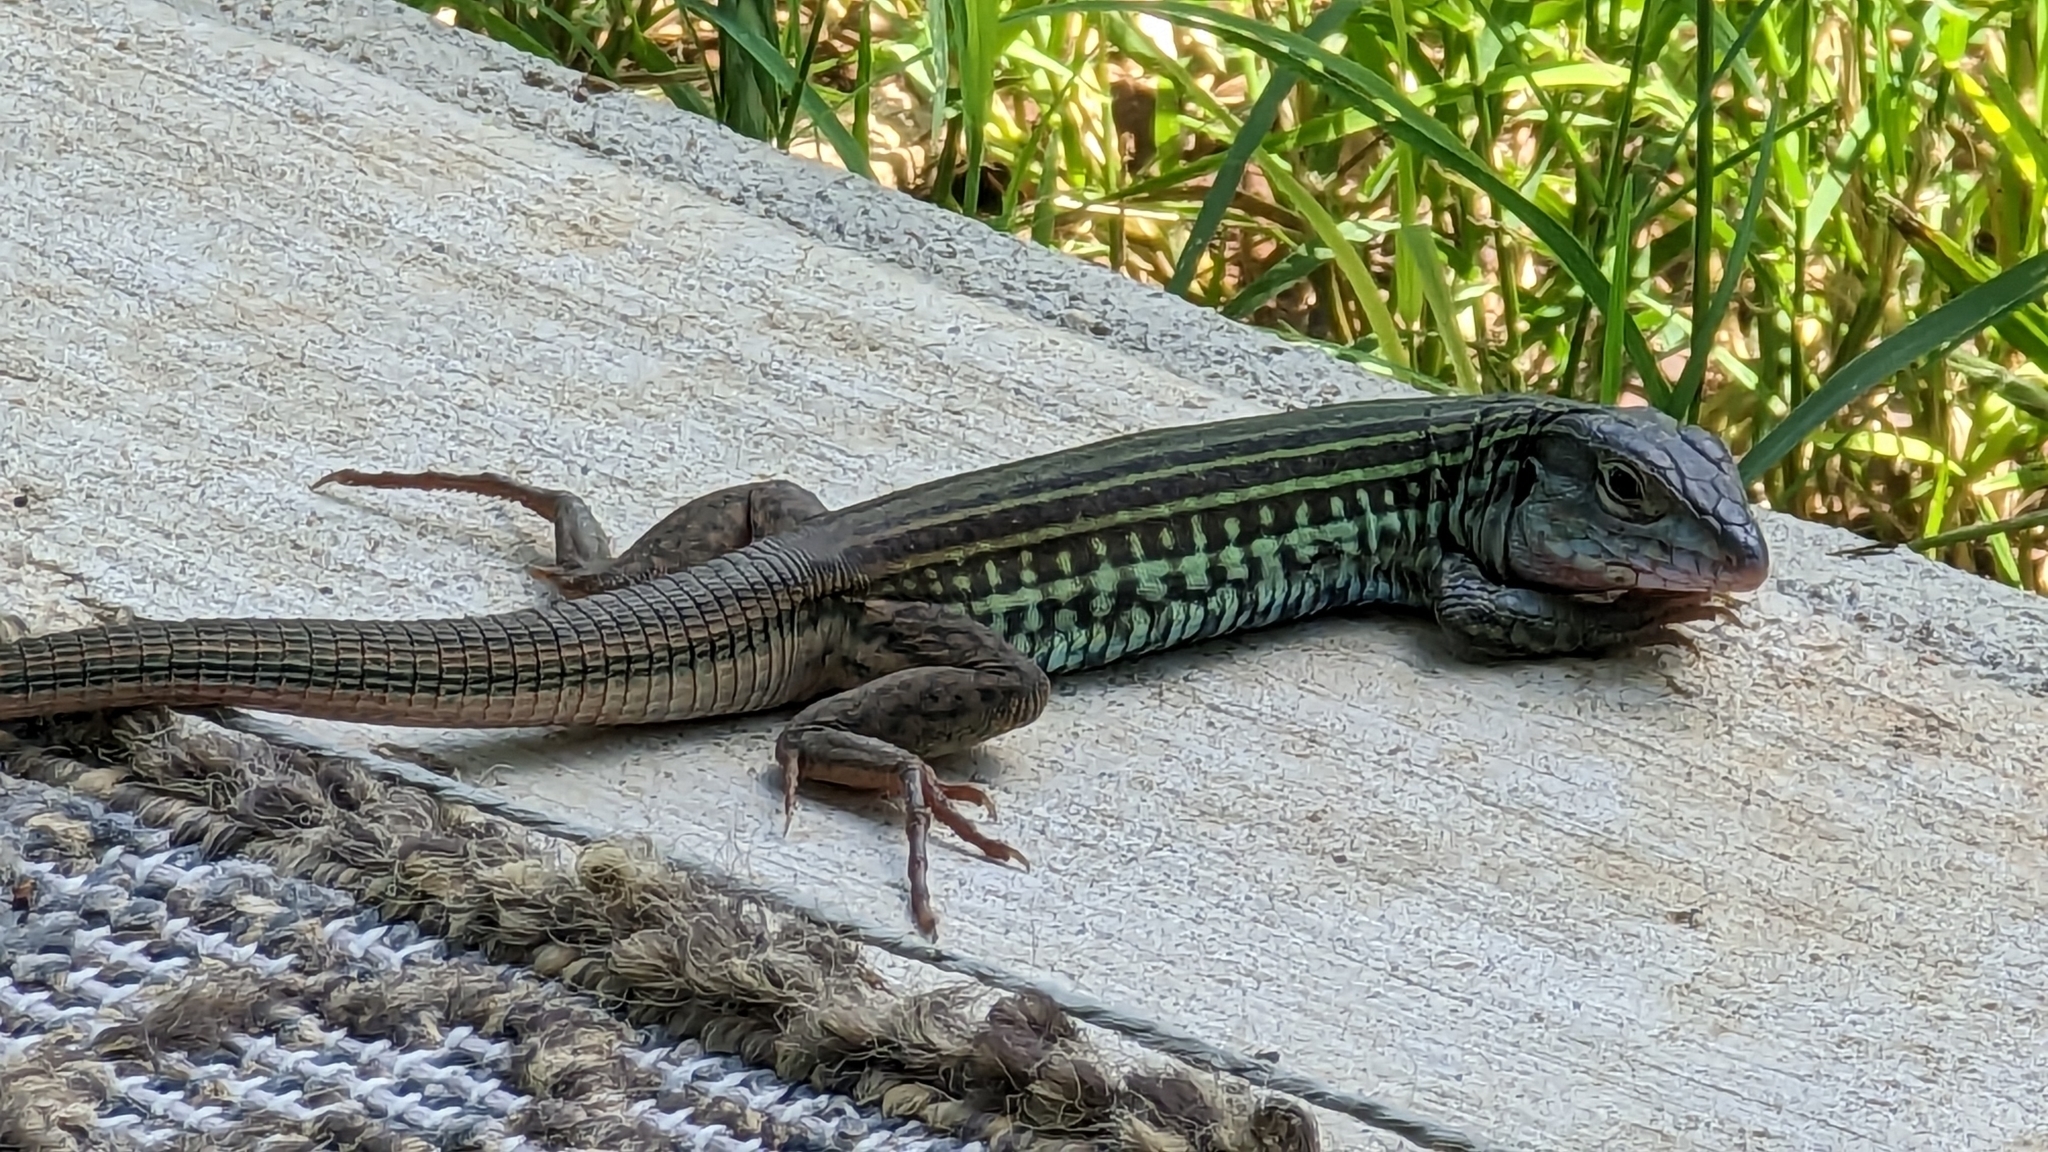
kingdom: Animalia
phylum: Chordata
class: Squamata
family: Teiidae
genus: Aspidoscelis
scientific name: Aspidoscelis gularis
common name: Eastern spotted whiptail
